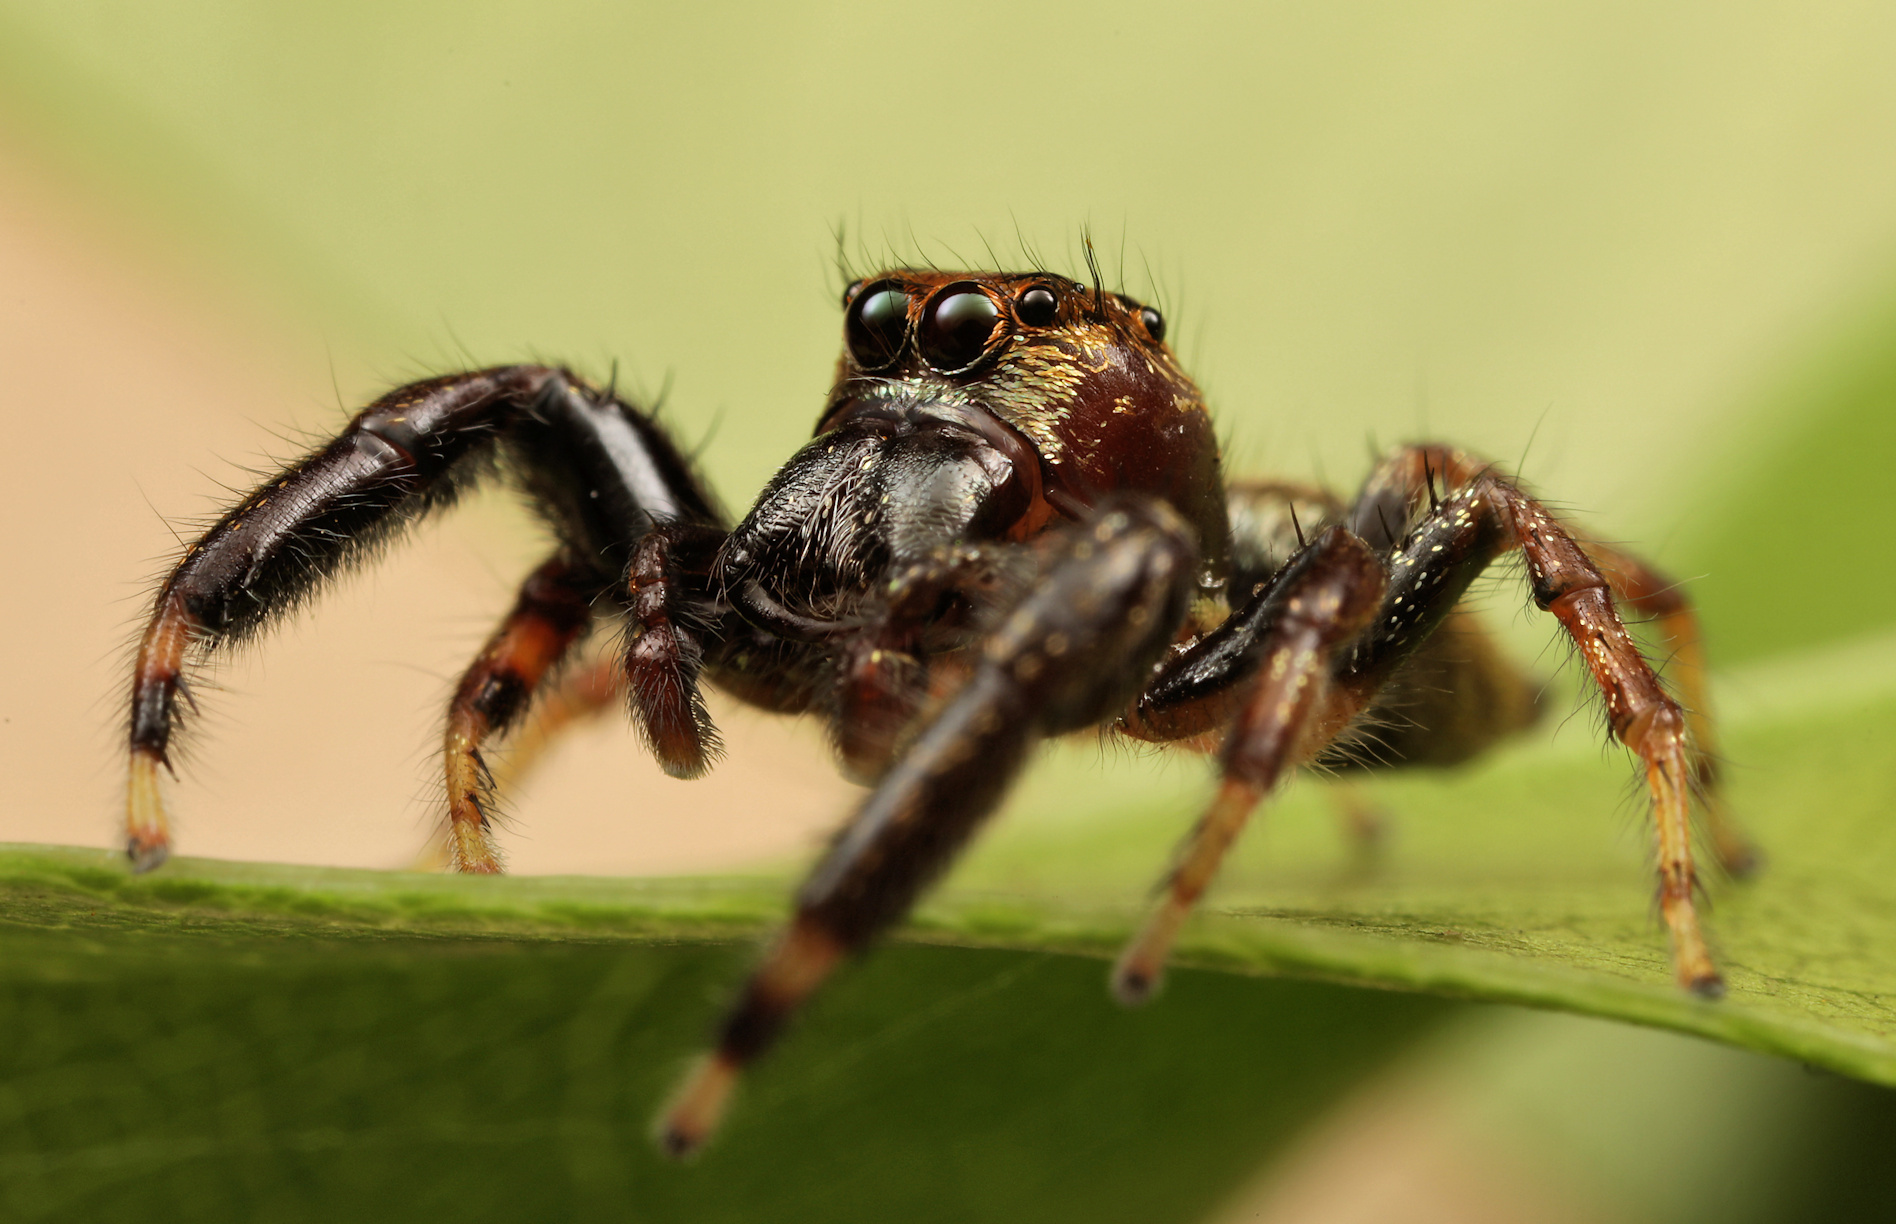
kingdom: Animalia
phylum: Arthropoda
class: Arachnida
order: Araneae
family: Salticidae
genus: Thyene
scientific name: Thyene natalii
